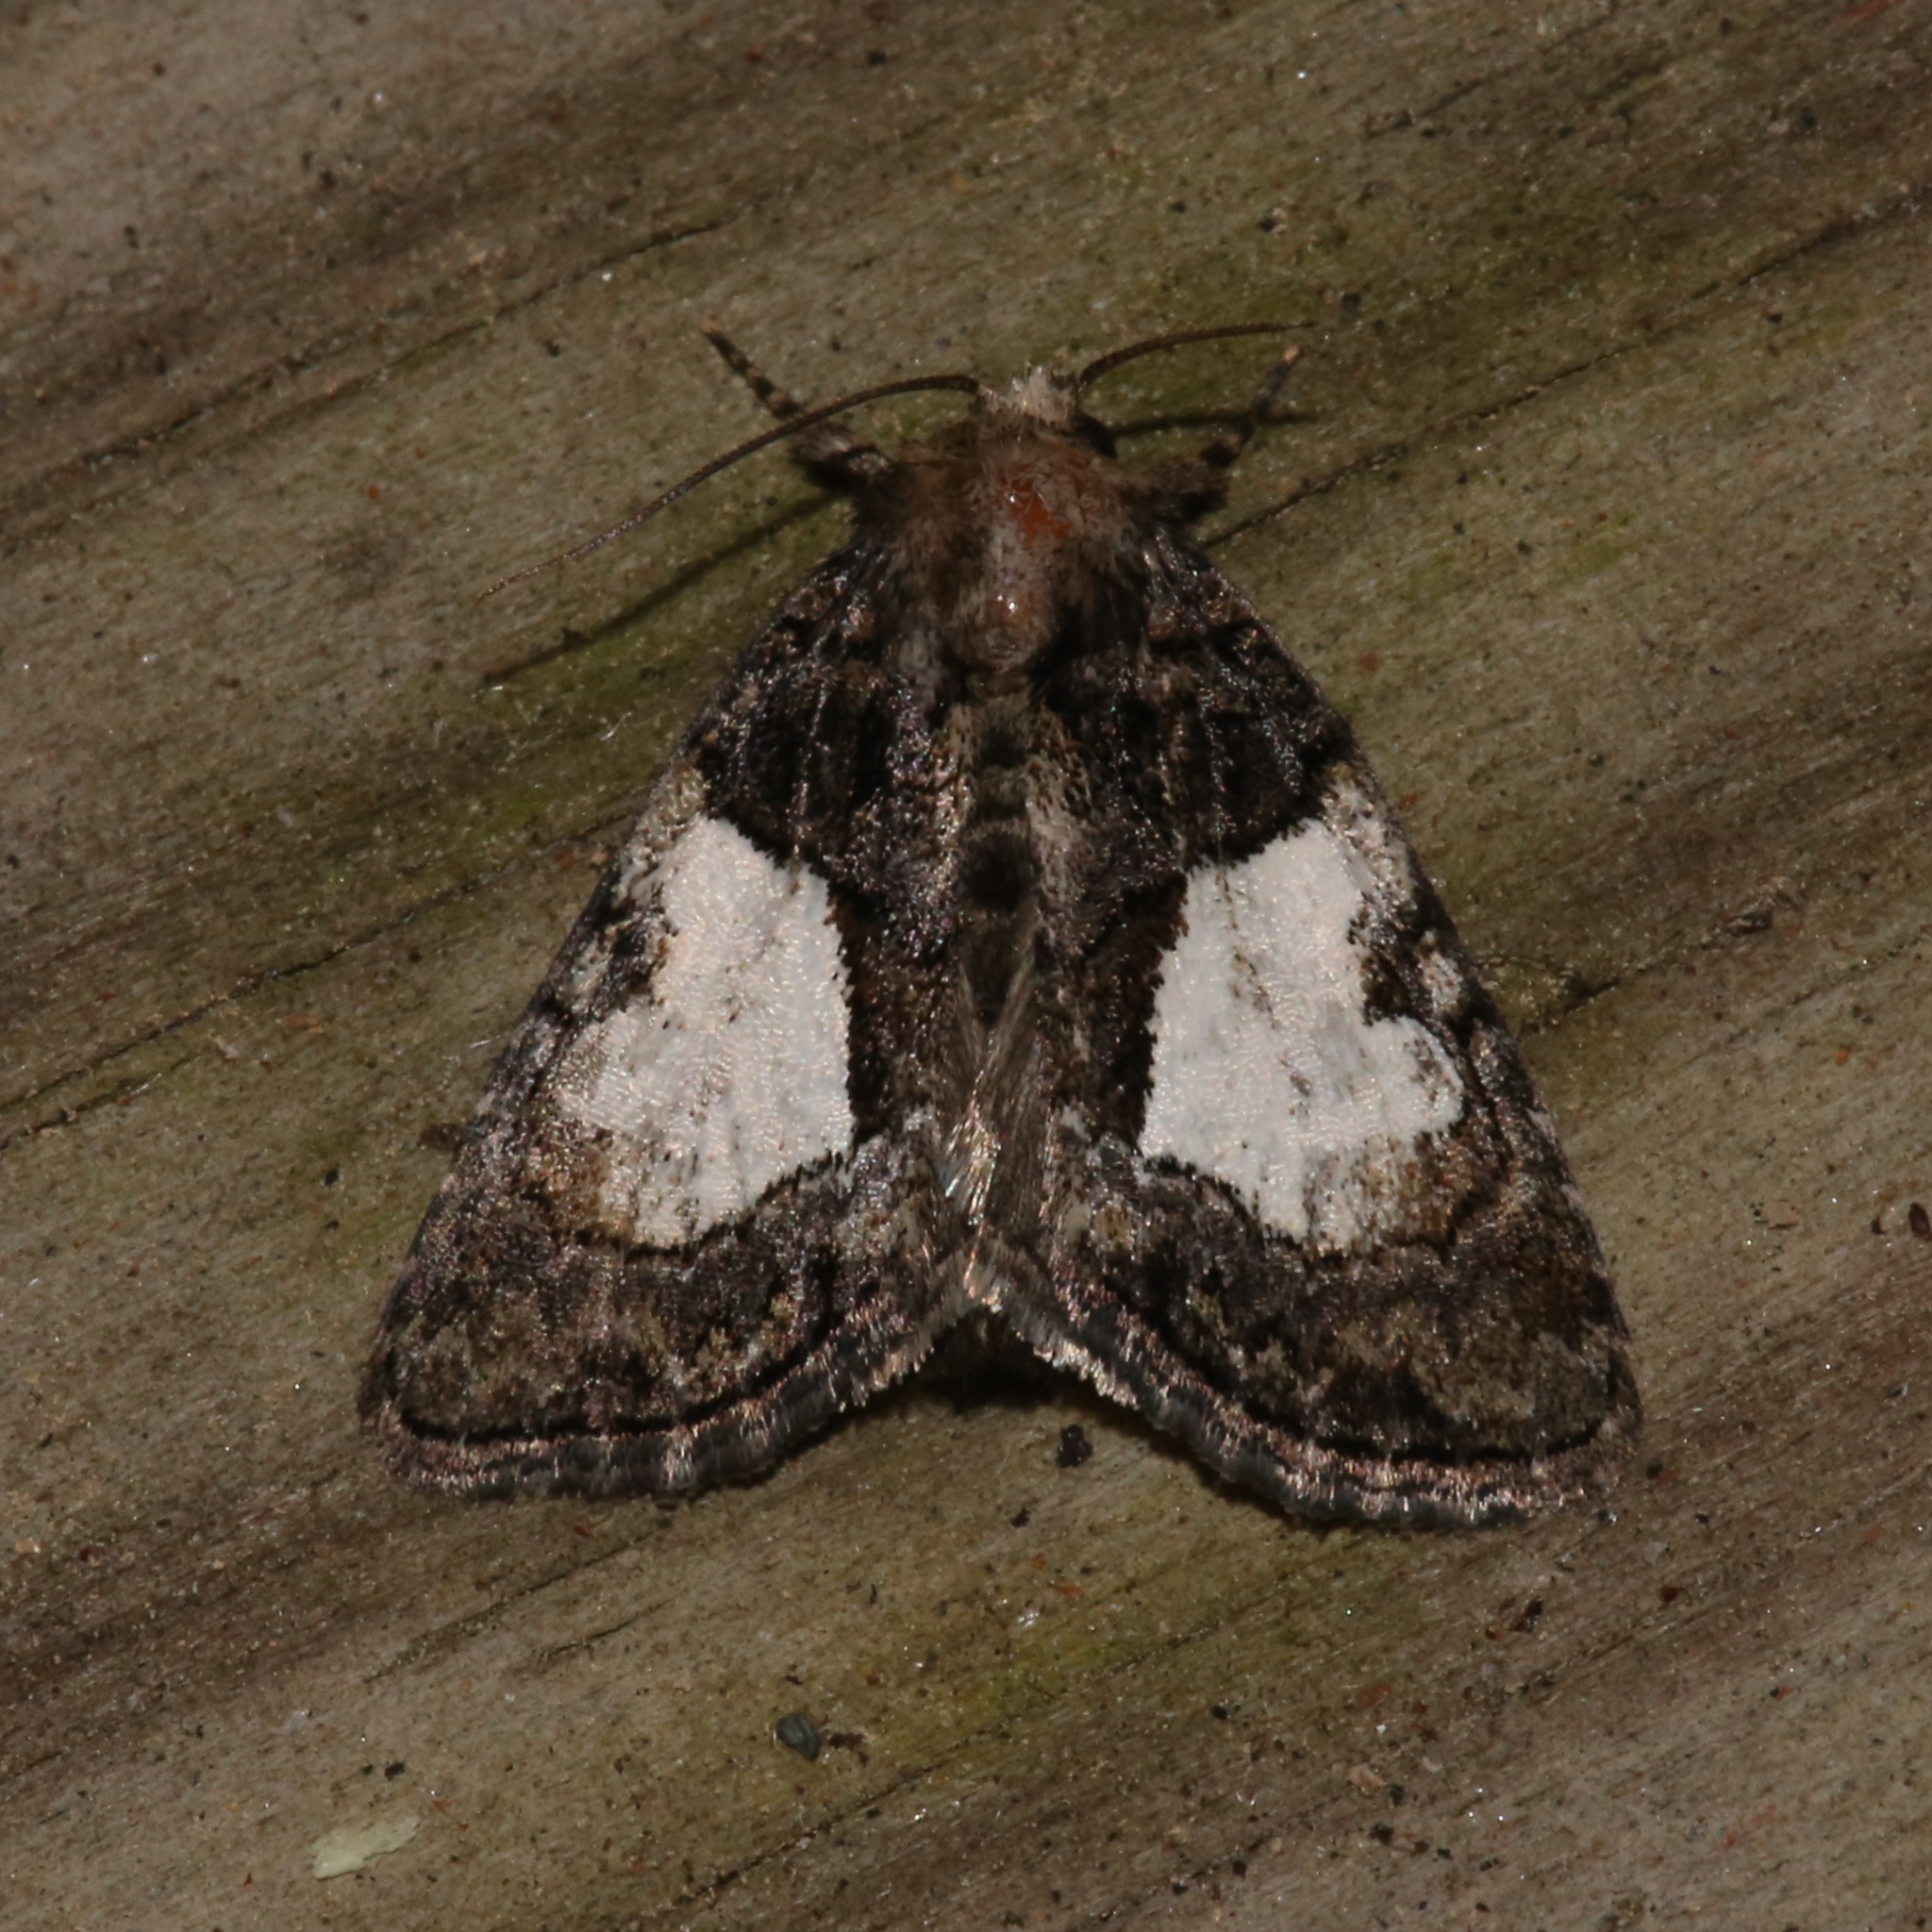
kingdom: Animalia
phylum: Arthropoda
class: Insecta
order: Lepidoptera
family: Noctuidae
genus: Chytonix
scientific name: Chytonix palliatricula
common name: Cloaked marvel
